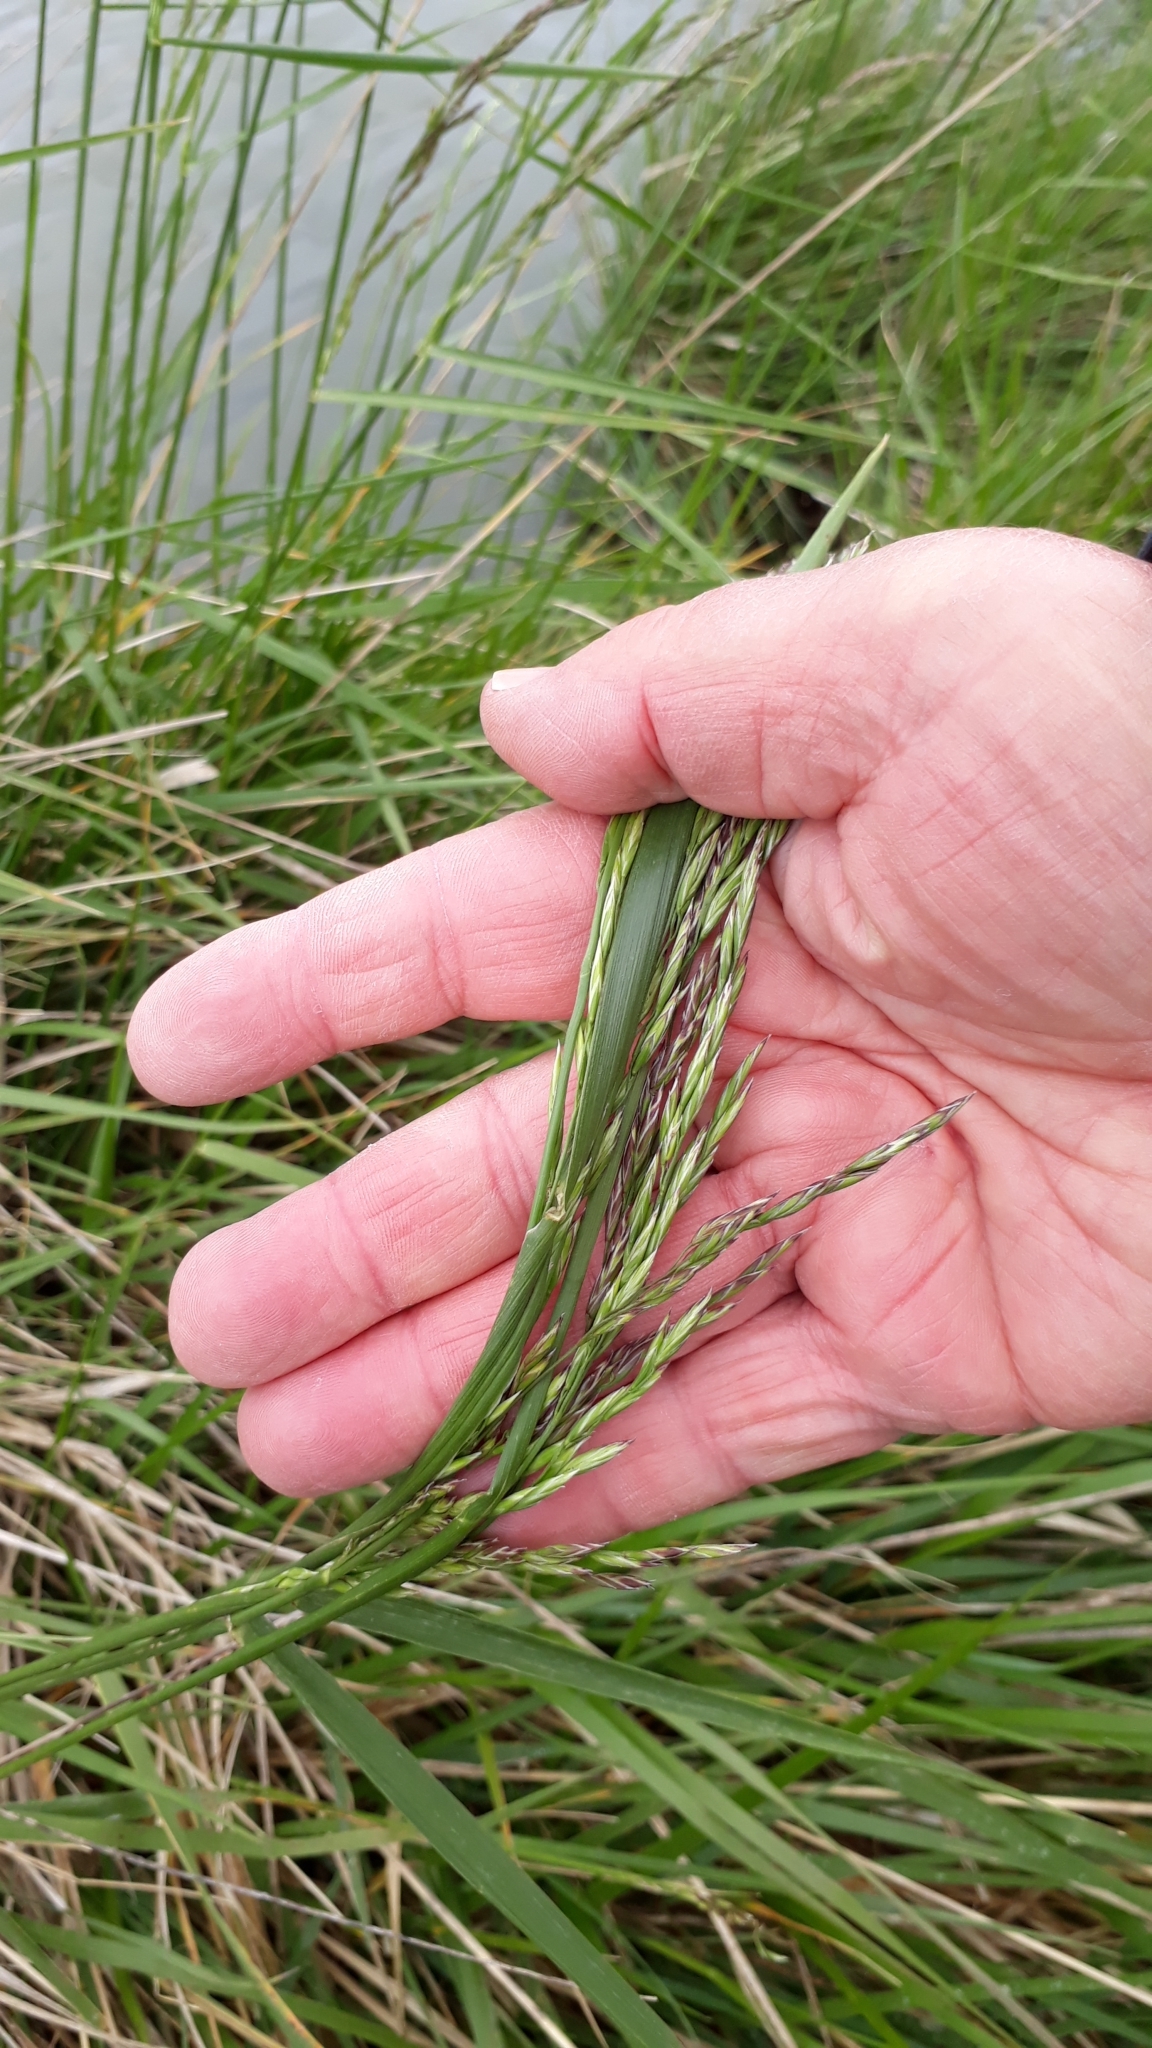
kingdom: Plantae
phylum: Tracheophyta
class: Liliopsida
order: Poales
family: Poaceae
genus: Lolium
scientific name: Lolium arundinaceum
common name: Reed fescue
